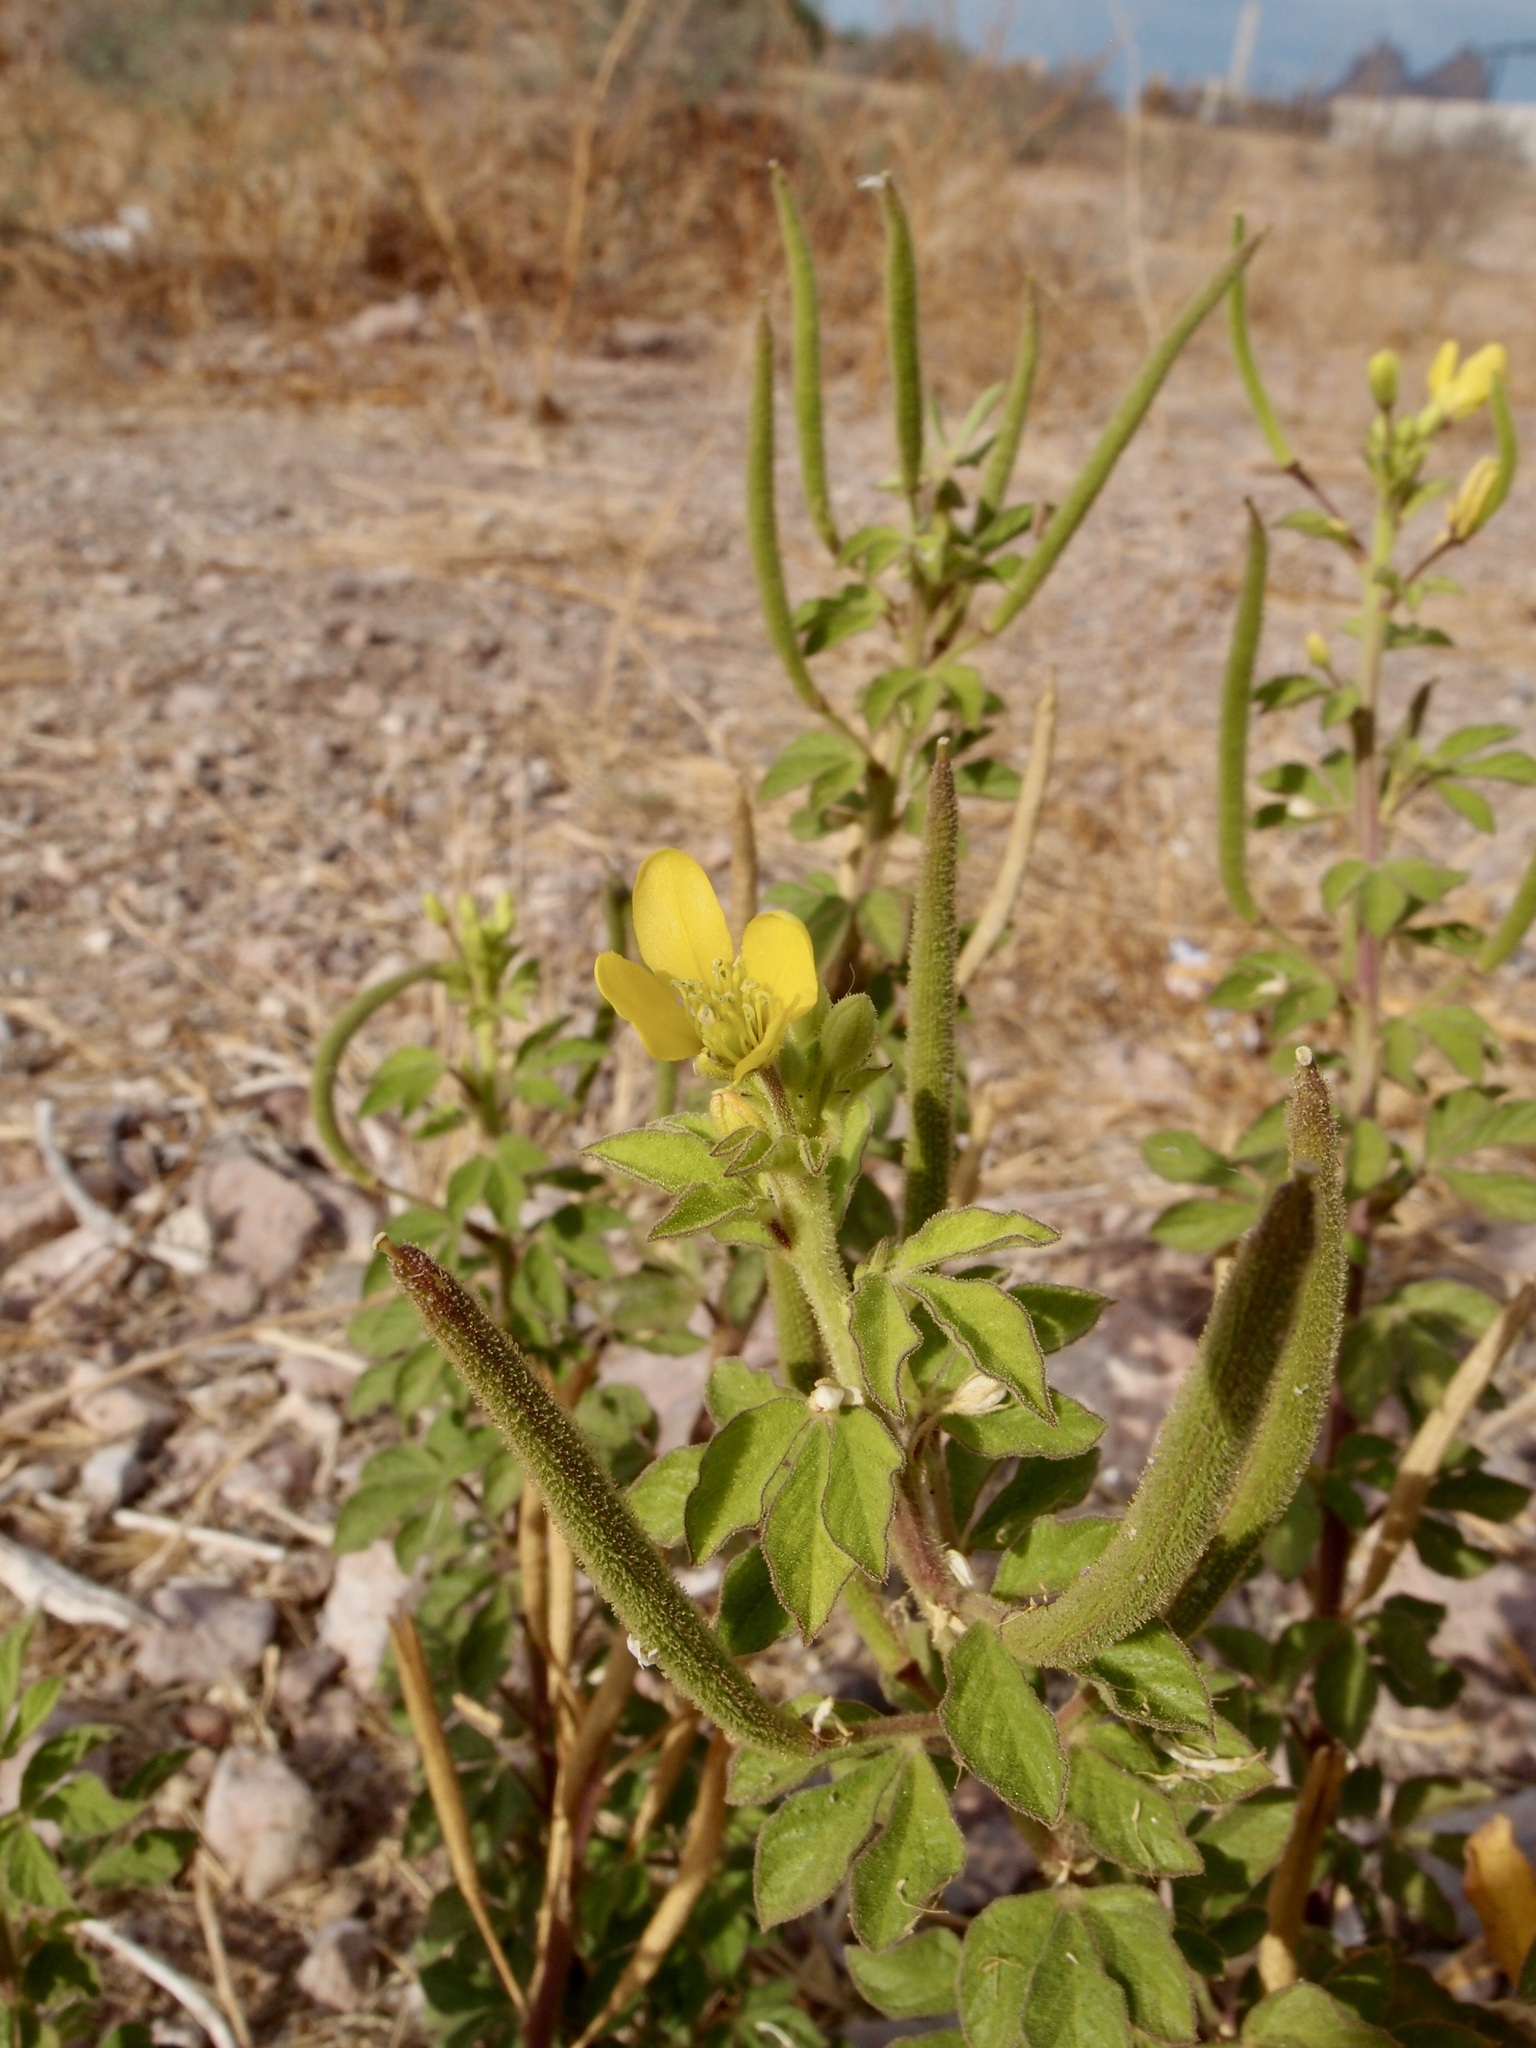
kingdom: Plantae
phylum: Tracheophyta
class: Magnoliopsida
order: Brassicales
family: Cleomaceae
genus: Arivela
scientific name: Arivela viscosa
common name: Asian spiderflower
